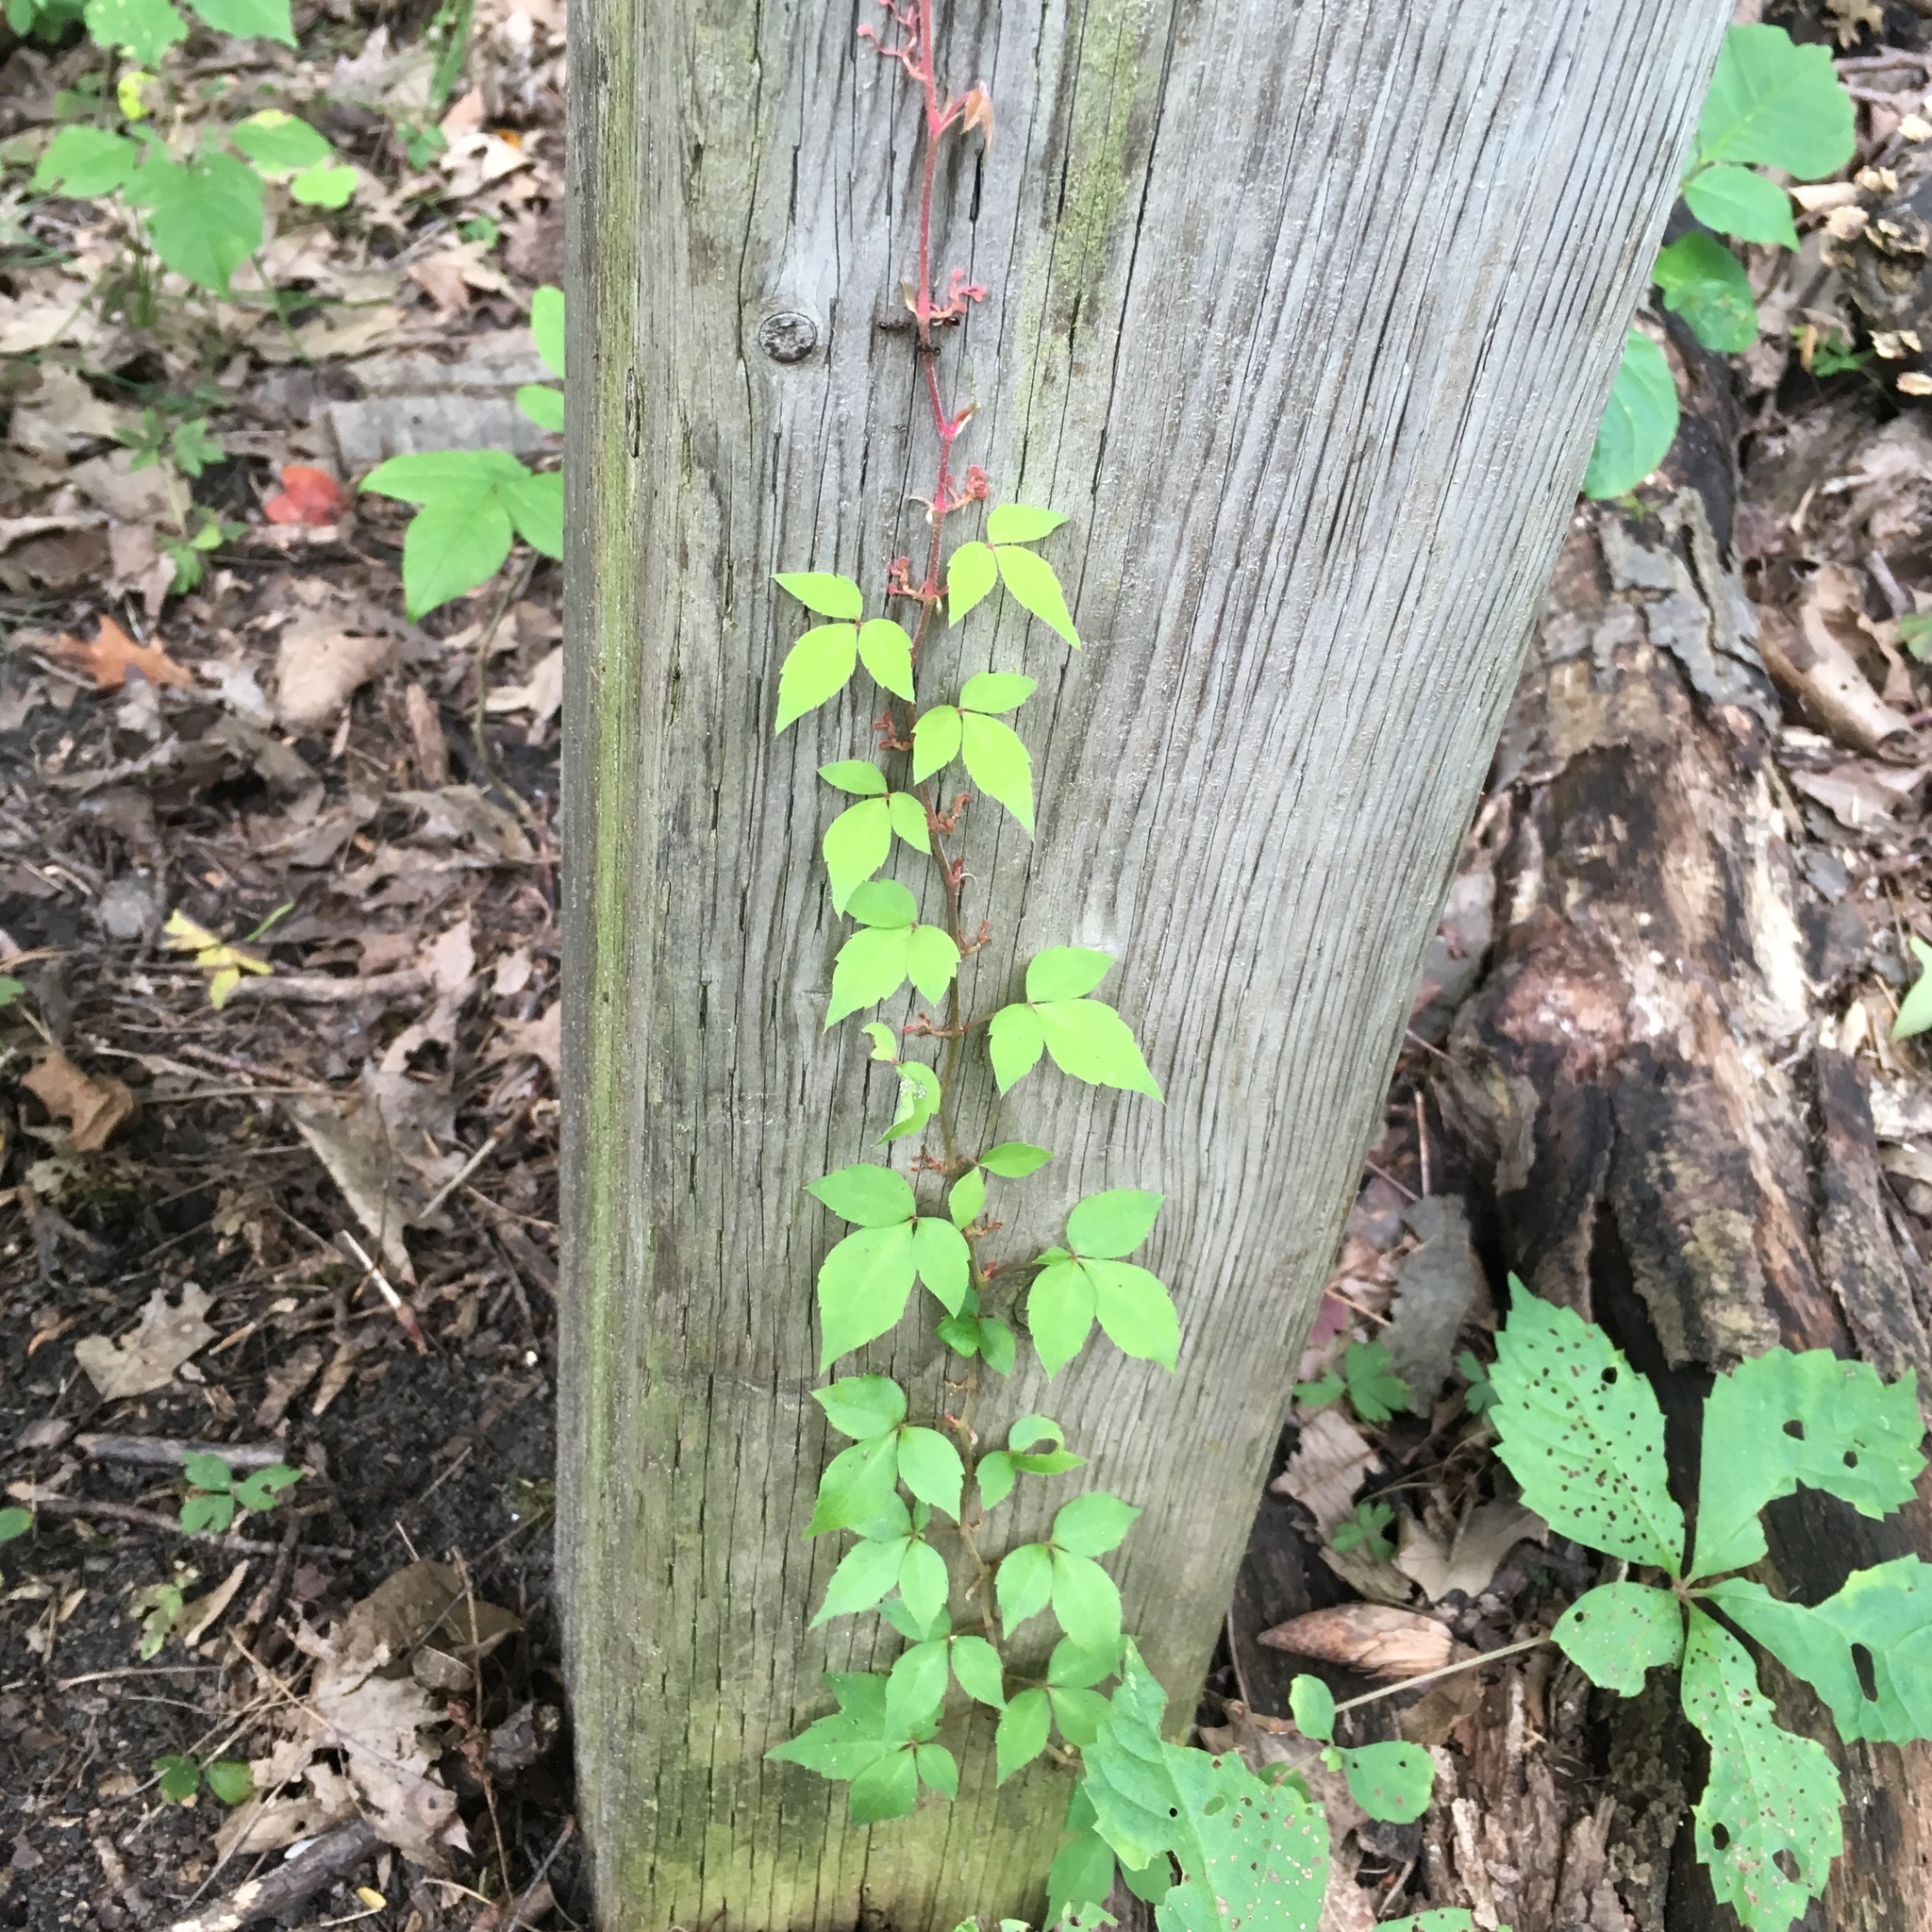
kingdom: Plantae
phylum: Tracheophyta
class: Magnoliopsida
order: Vitales
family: Vitaceae
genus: Parthenocissus
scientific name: Parthenocissus quinquefolia
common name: Virginia-creeper
